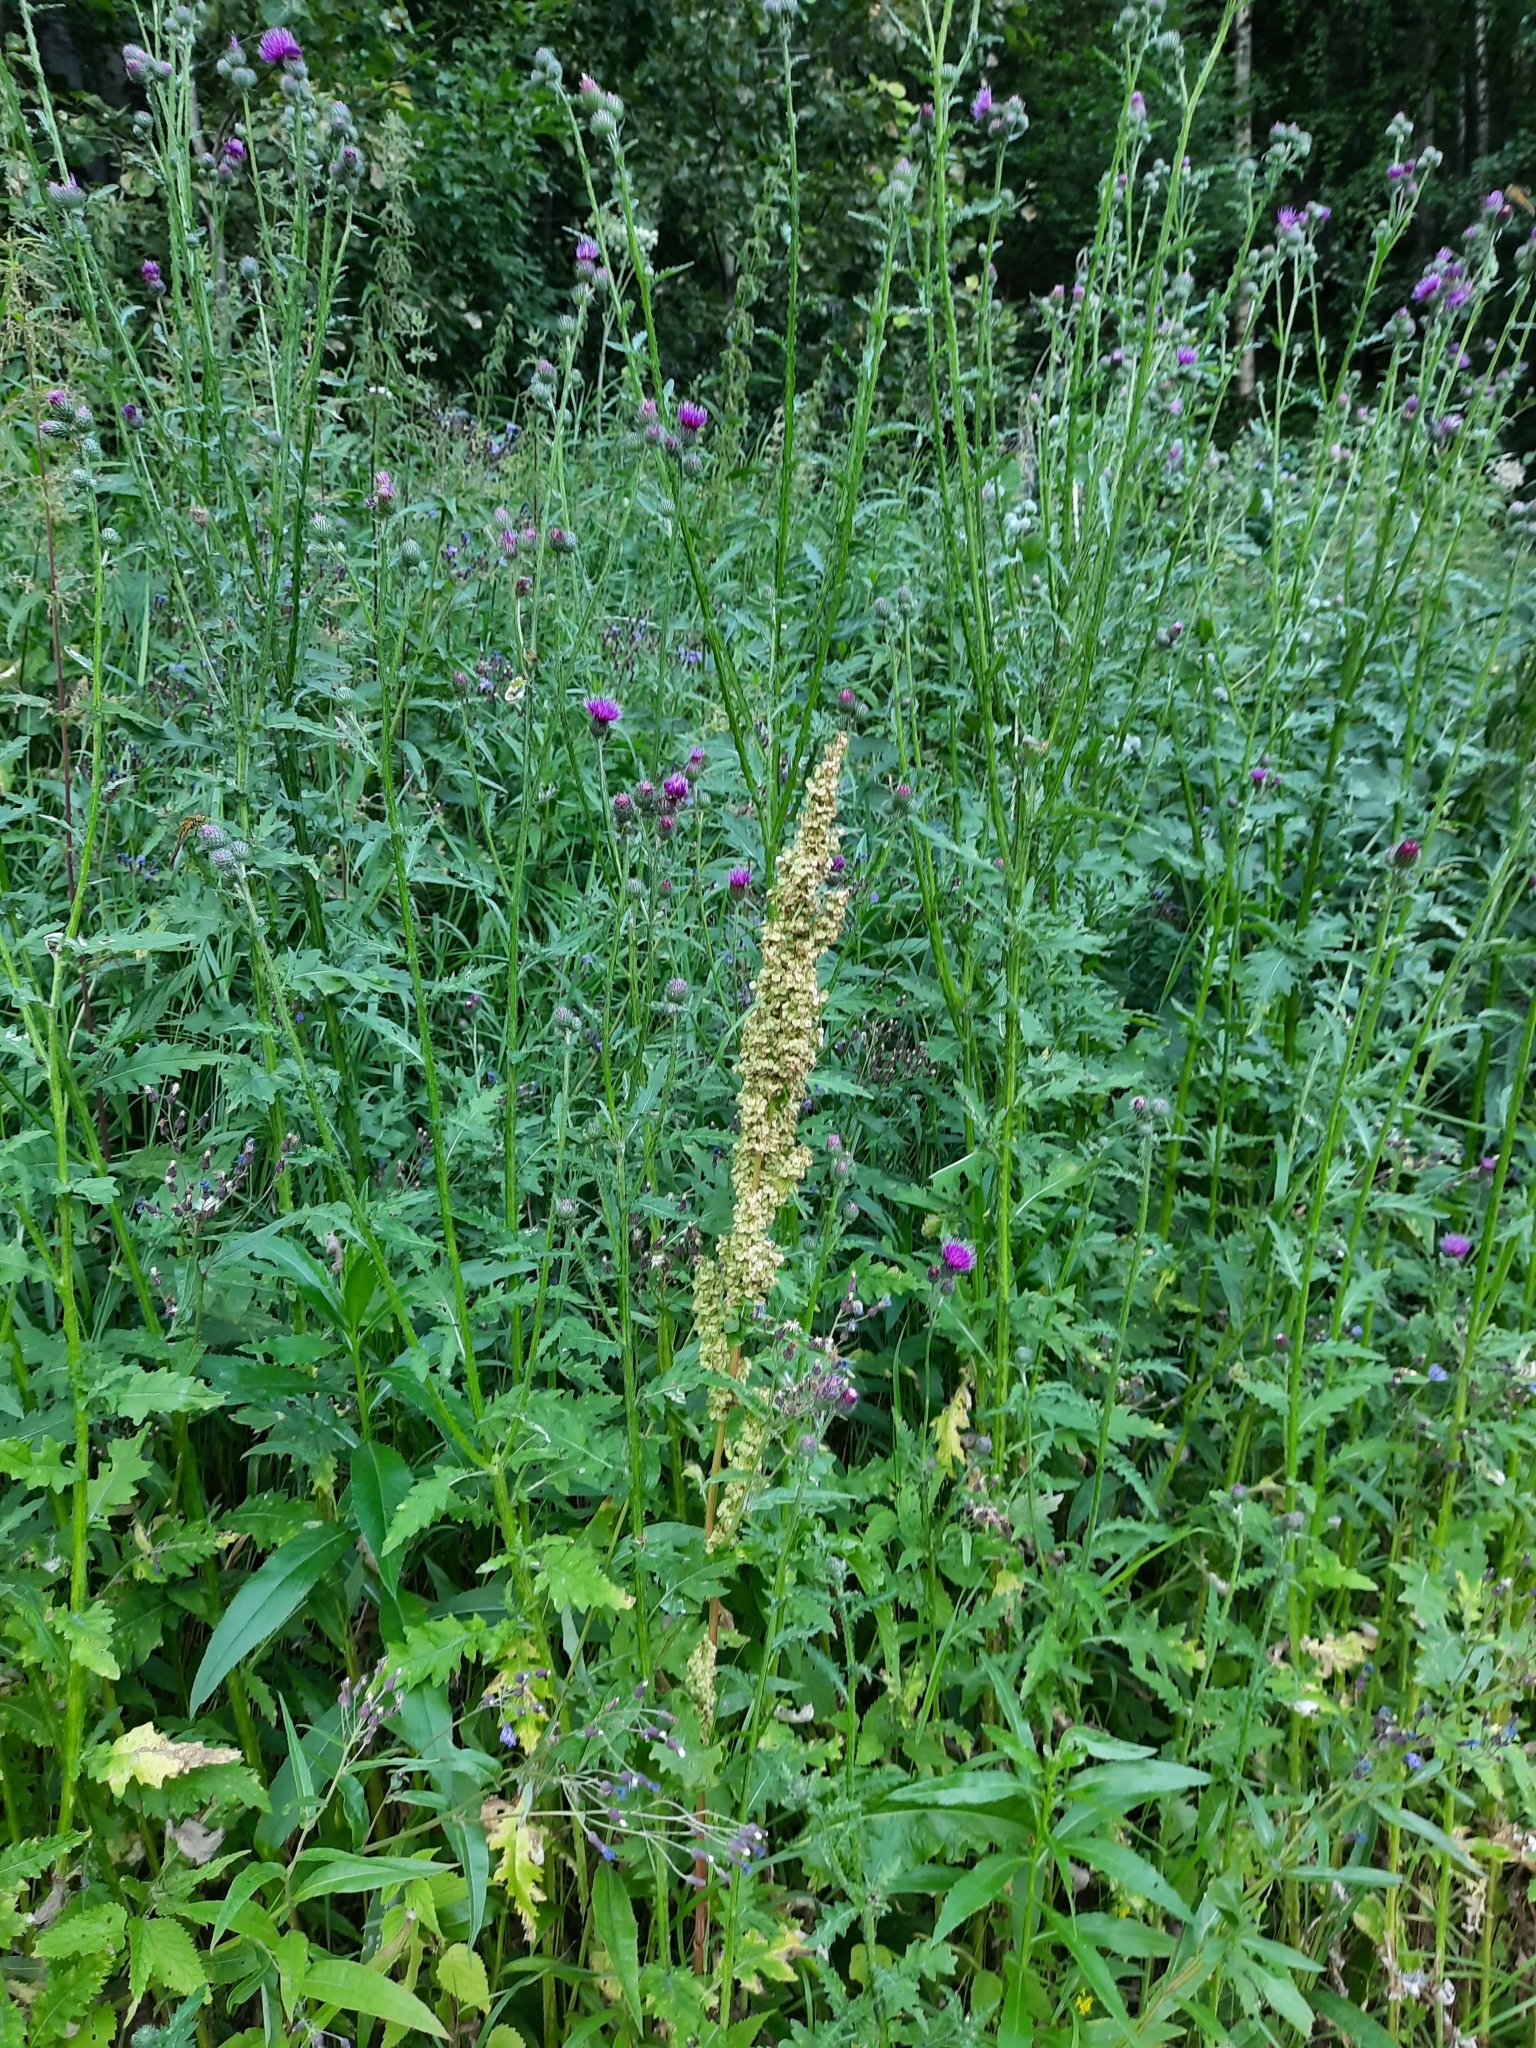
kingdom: Plantae
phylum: Tracheophyta
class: Magnoliopsida
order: Asterales
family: Asteraceae
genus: Carduus
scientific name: Carduus crispus
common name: Welted thistle
